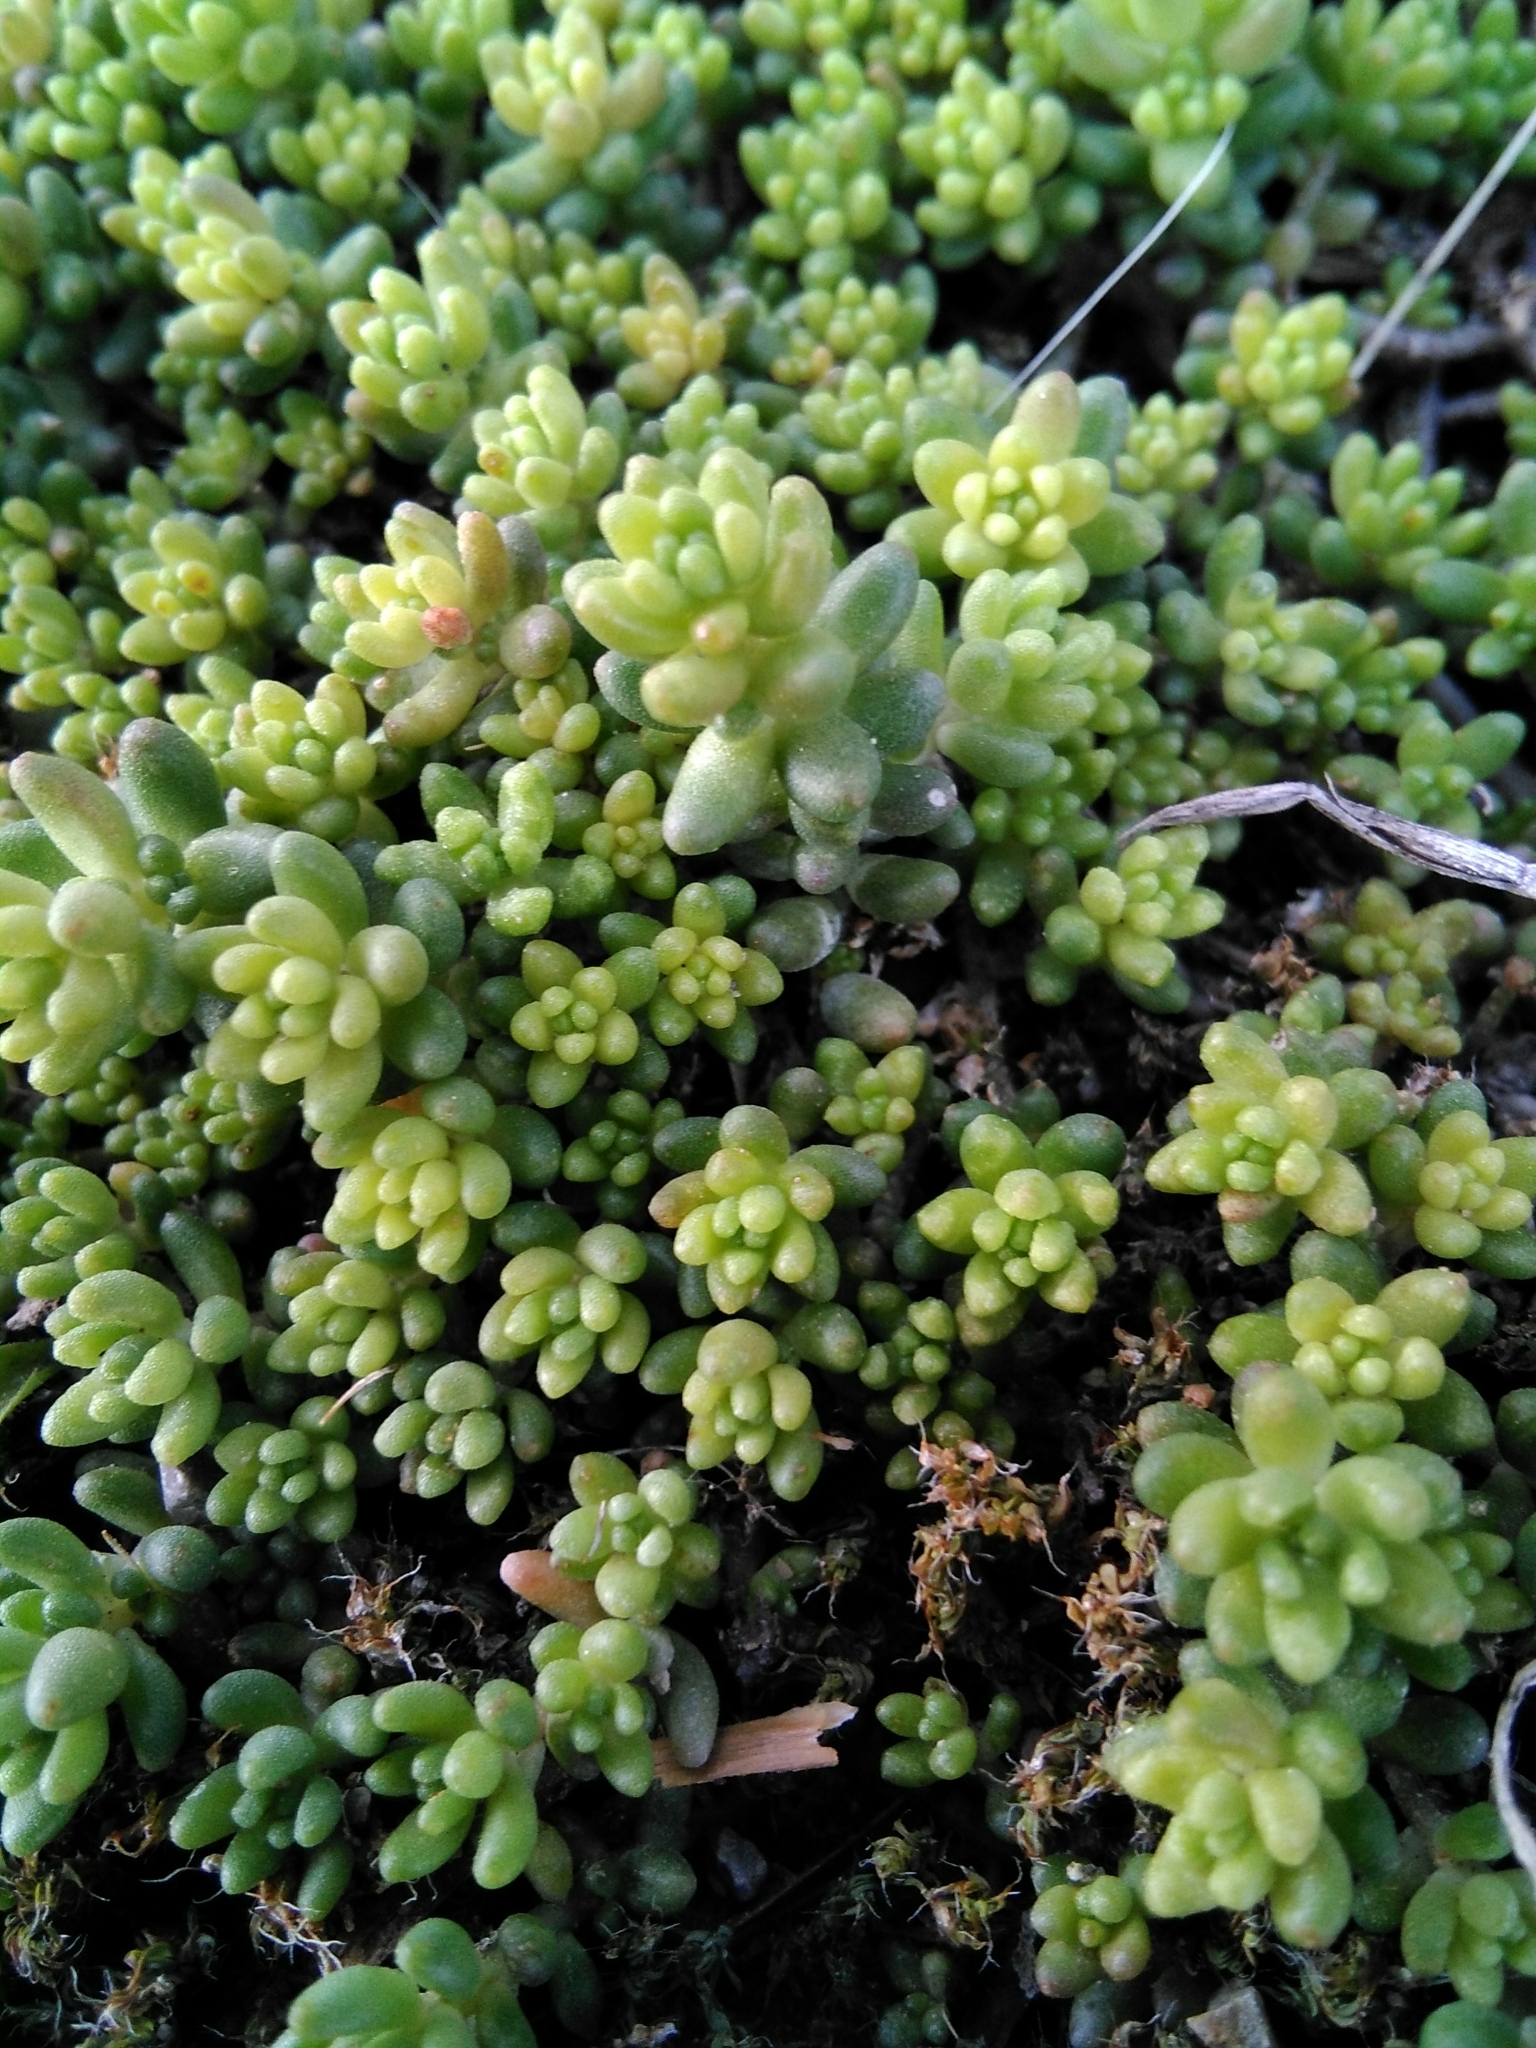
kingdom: Plantae
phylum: Tracheophyta
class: Magnoliopsida
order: Saxifragales
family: Crassulaceae
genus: Sedum
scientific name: Sedum album
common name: White stonecrop
